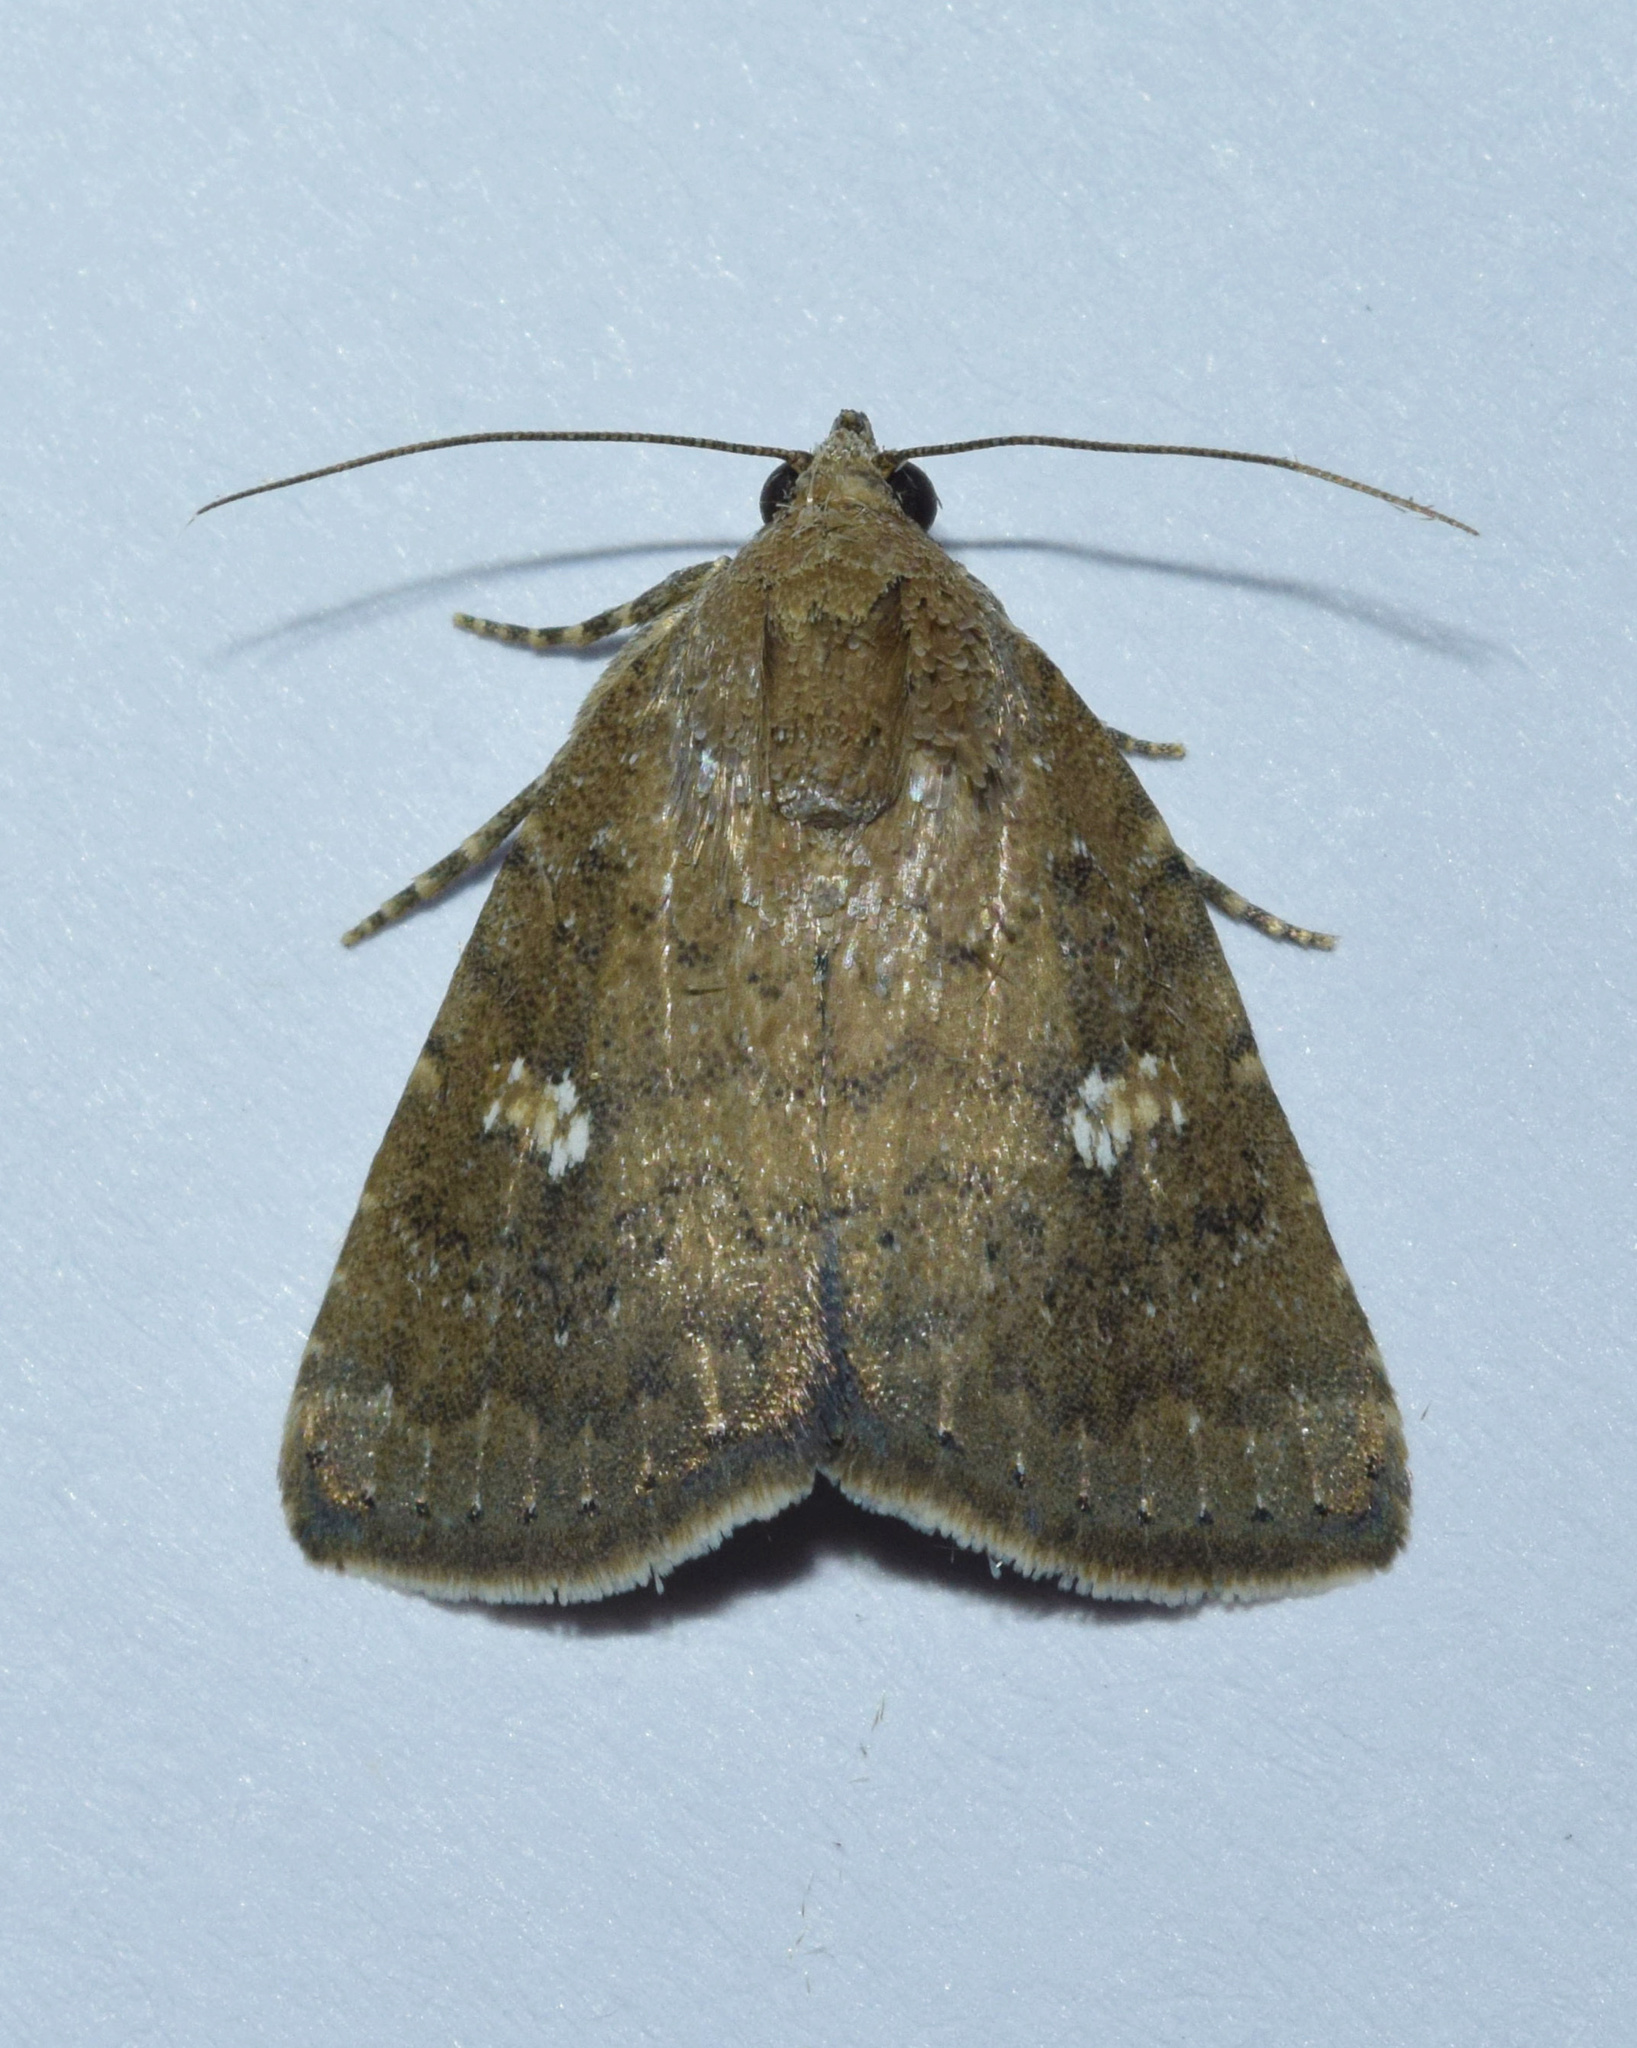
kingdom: Animalia
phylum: Arthropoda
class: Insecta
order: Lepidoptera
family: Noctuidae
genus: Amyna
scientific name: Amyna axis
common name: Cutworm
